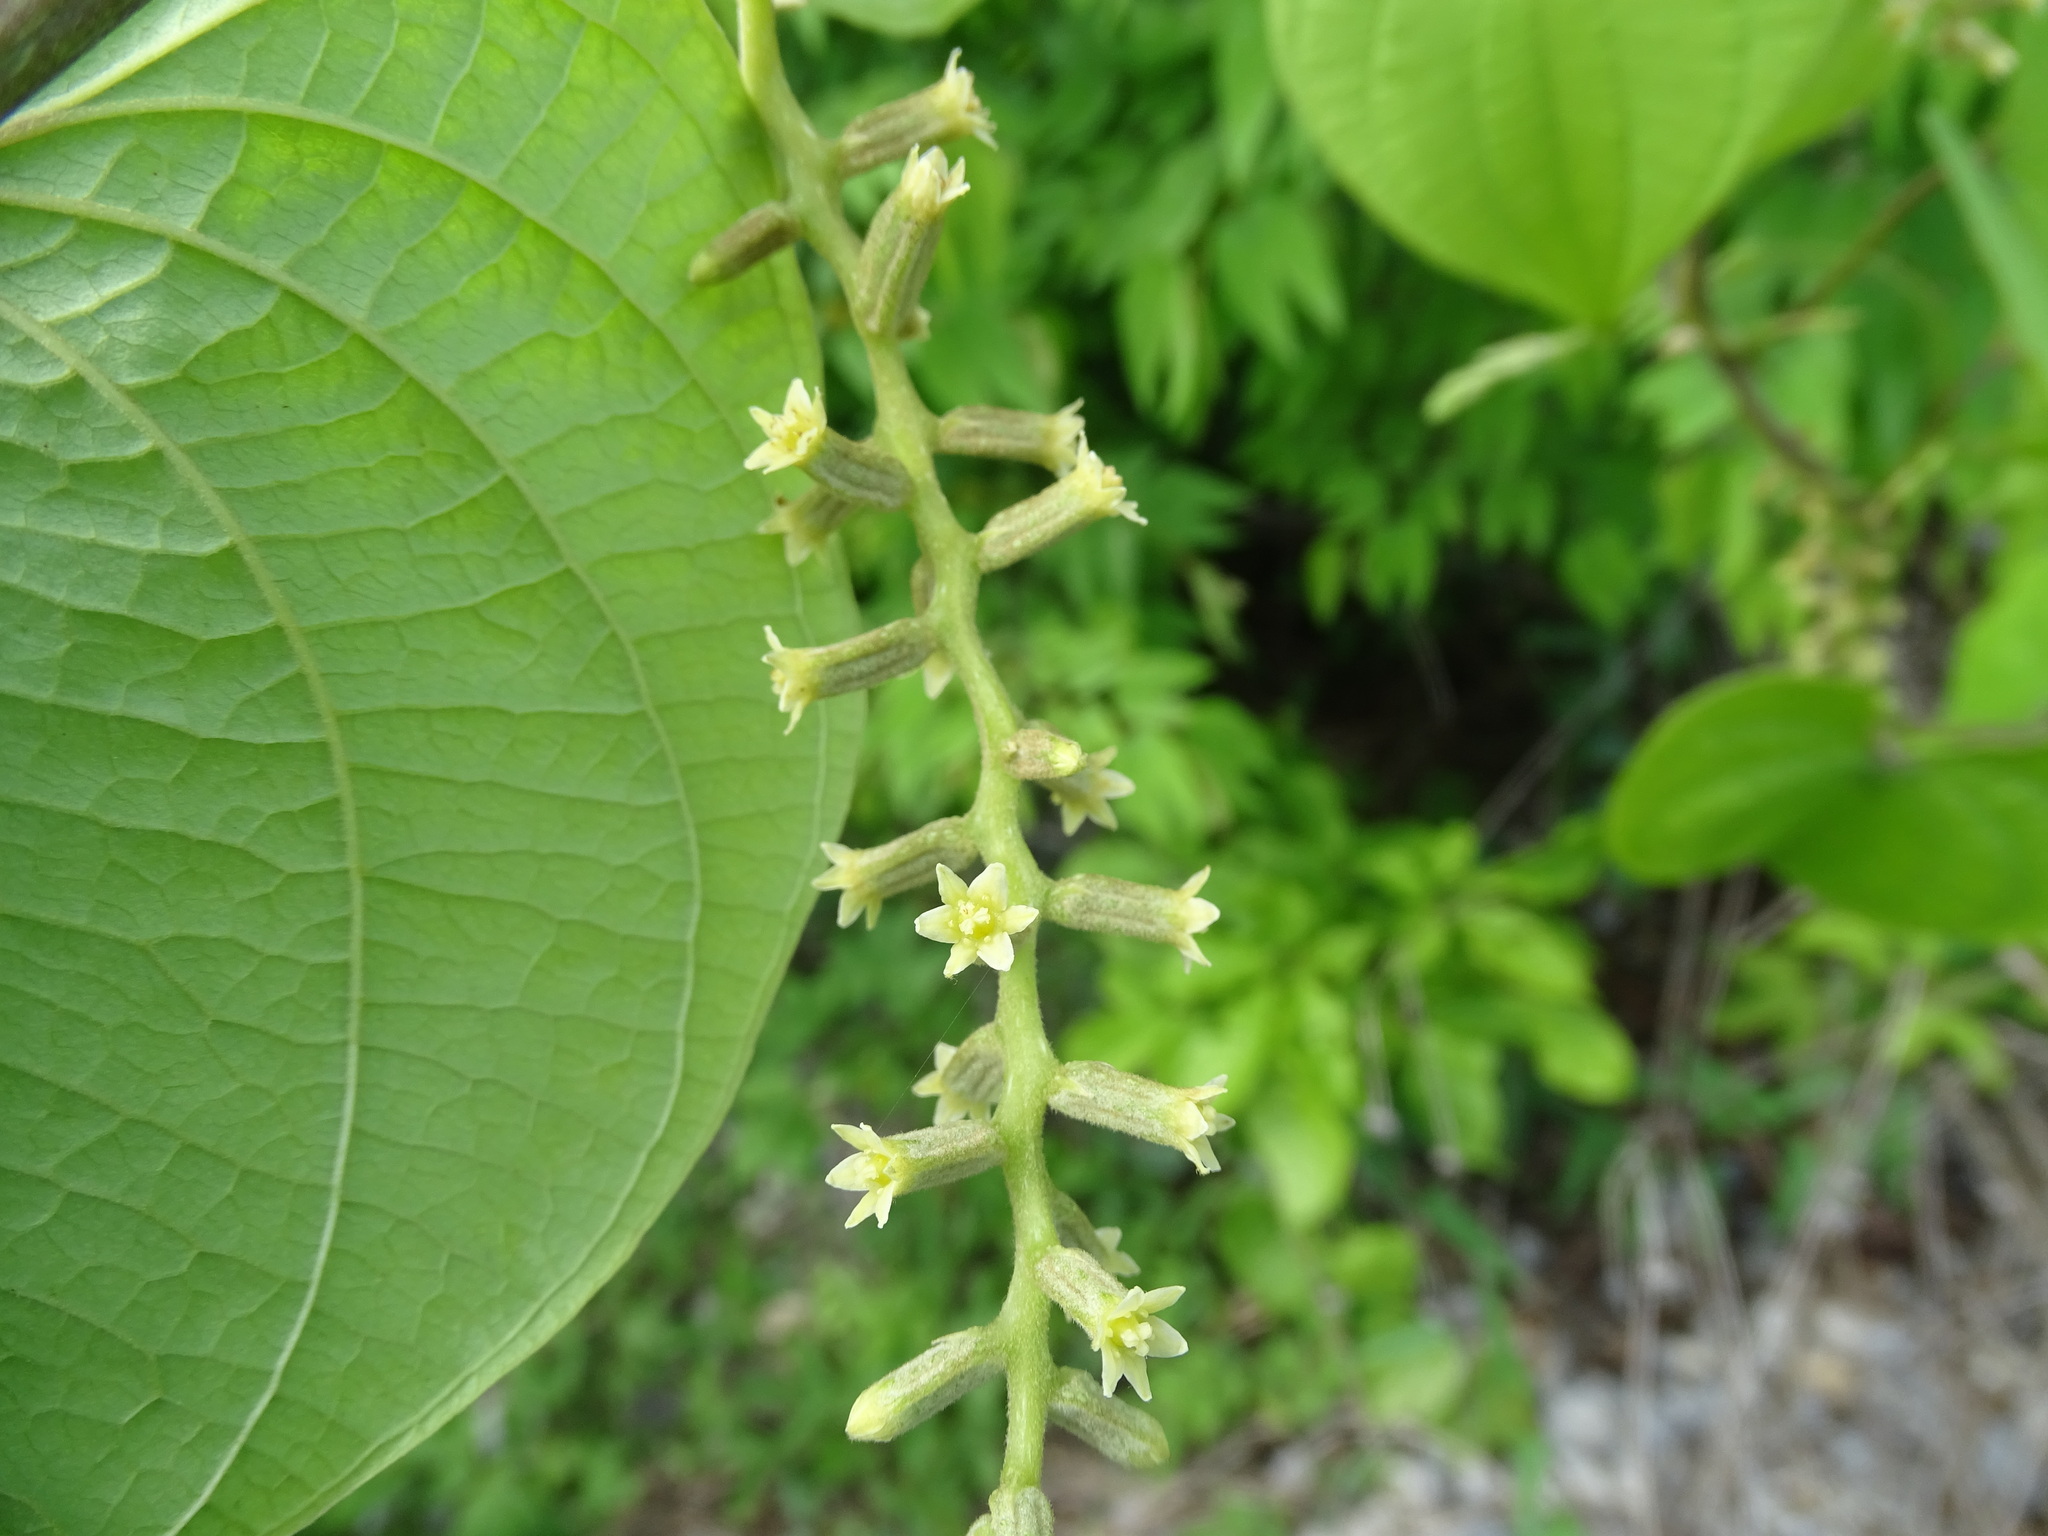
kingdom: Plantae
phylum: Tracheophyta
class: Liliopsida
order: Dioscoreales
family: Dioscoreaceae
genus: Dioscorea
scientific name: Dioscorea gomez-pompae
